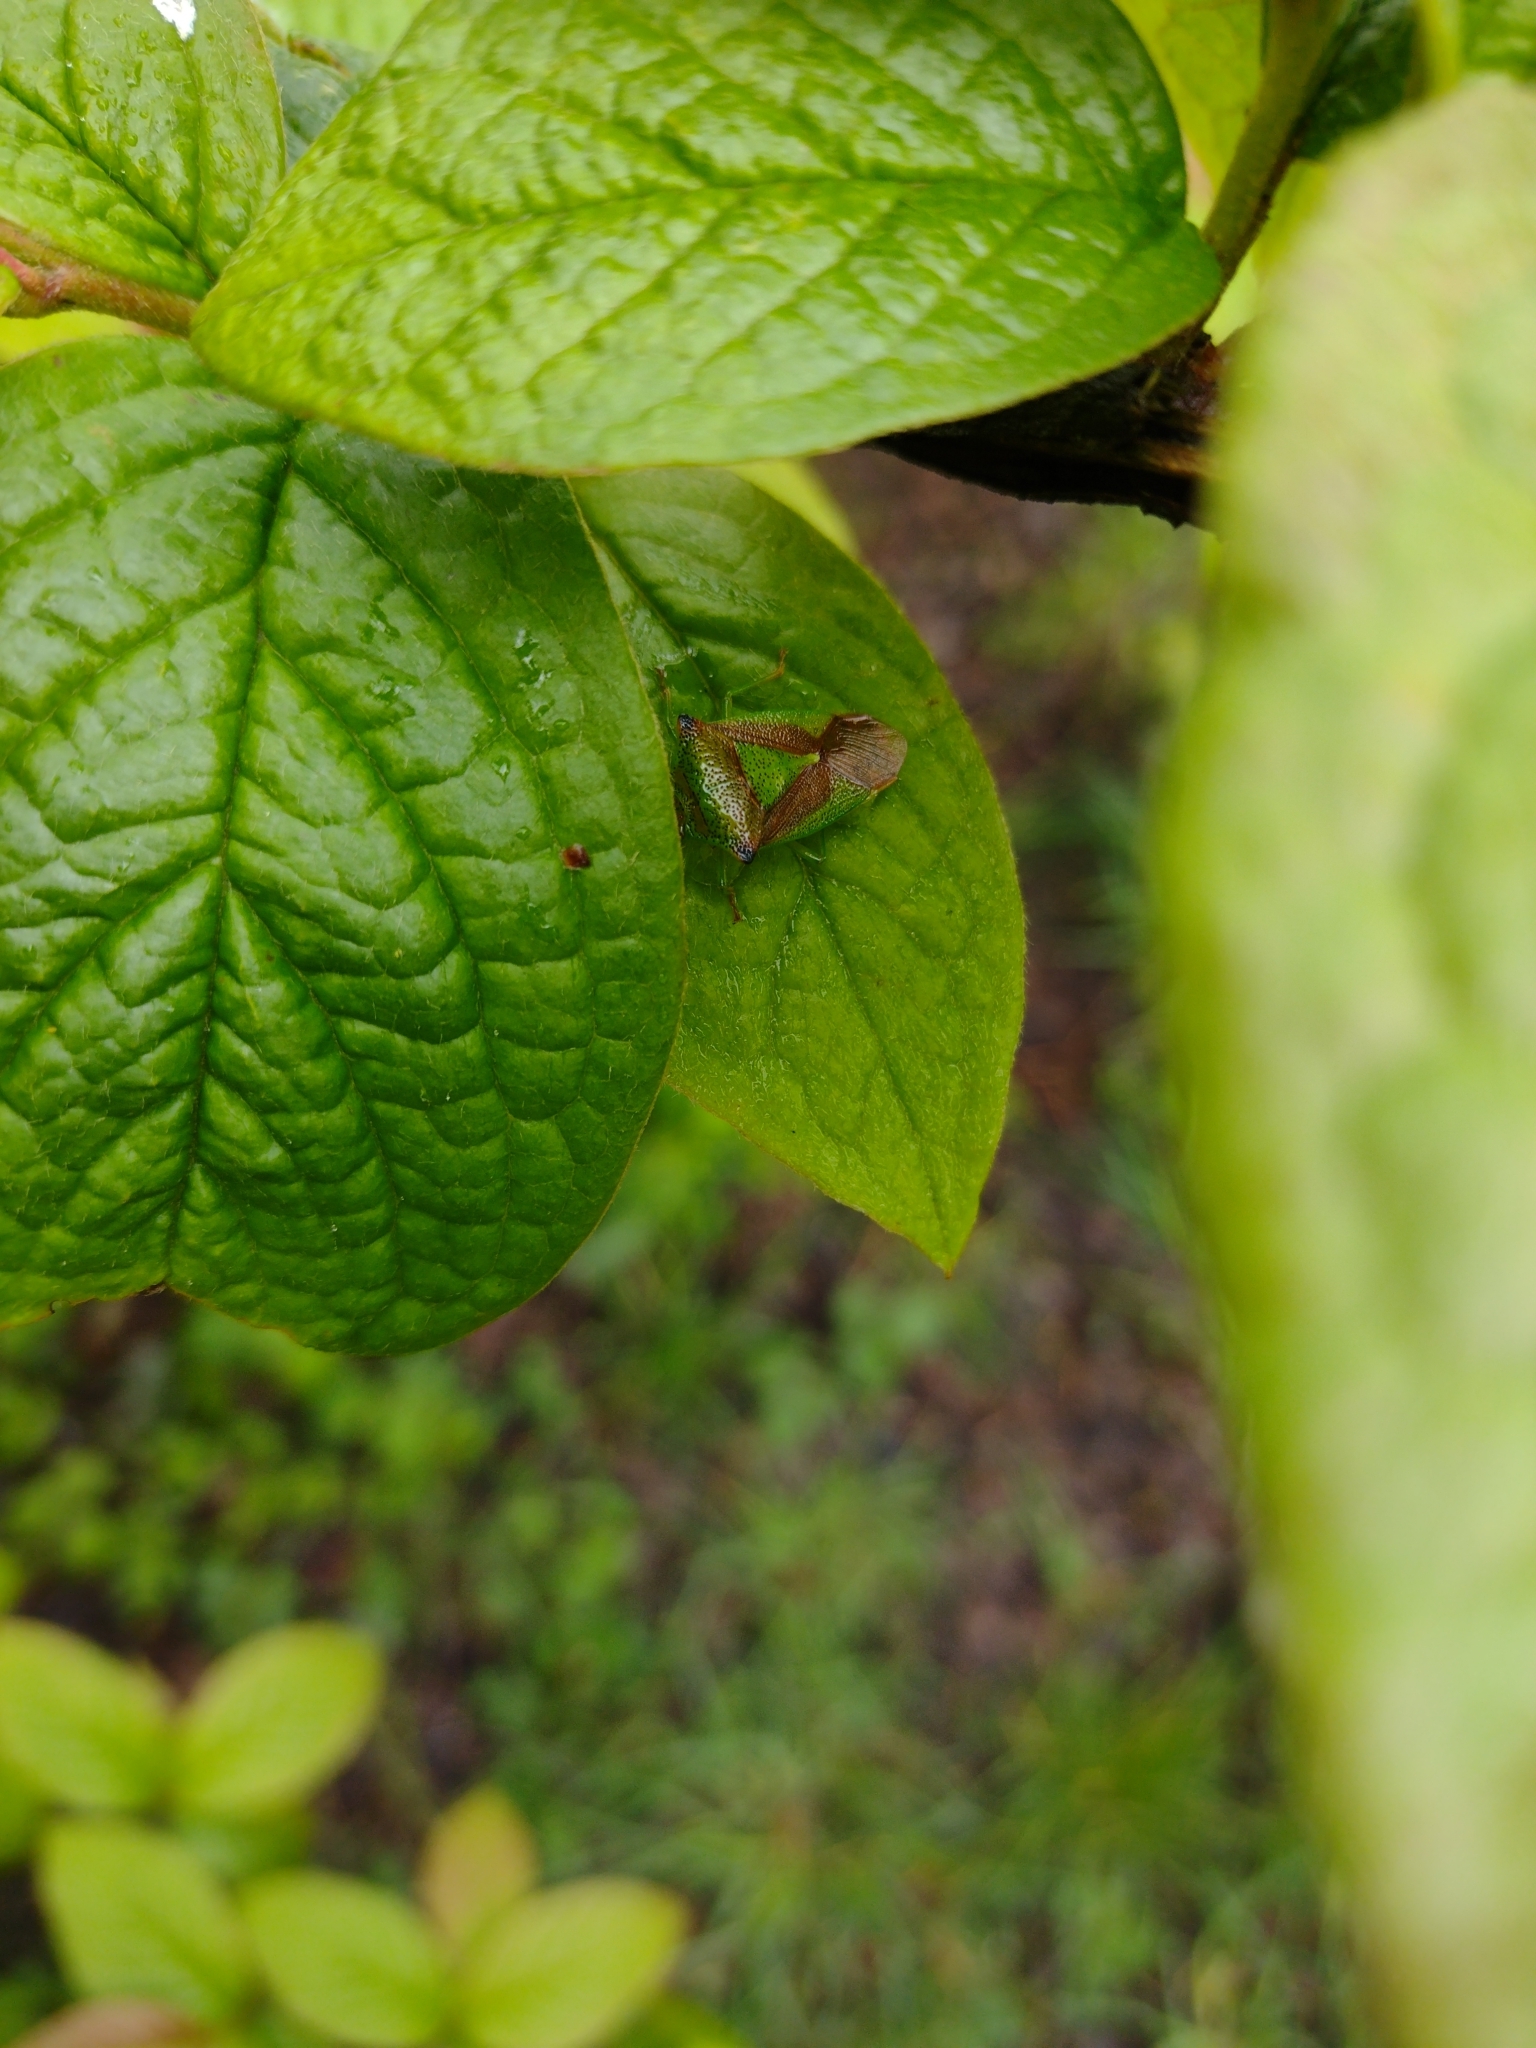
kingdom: Animalia
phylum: Arthropoda
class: Insecta
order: Hemiptera
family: Acanthosomatidae
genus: Acanthosoma
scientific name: Acanthosoma haemorrhoidale
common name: Hawthorn shieldbug
